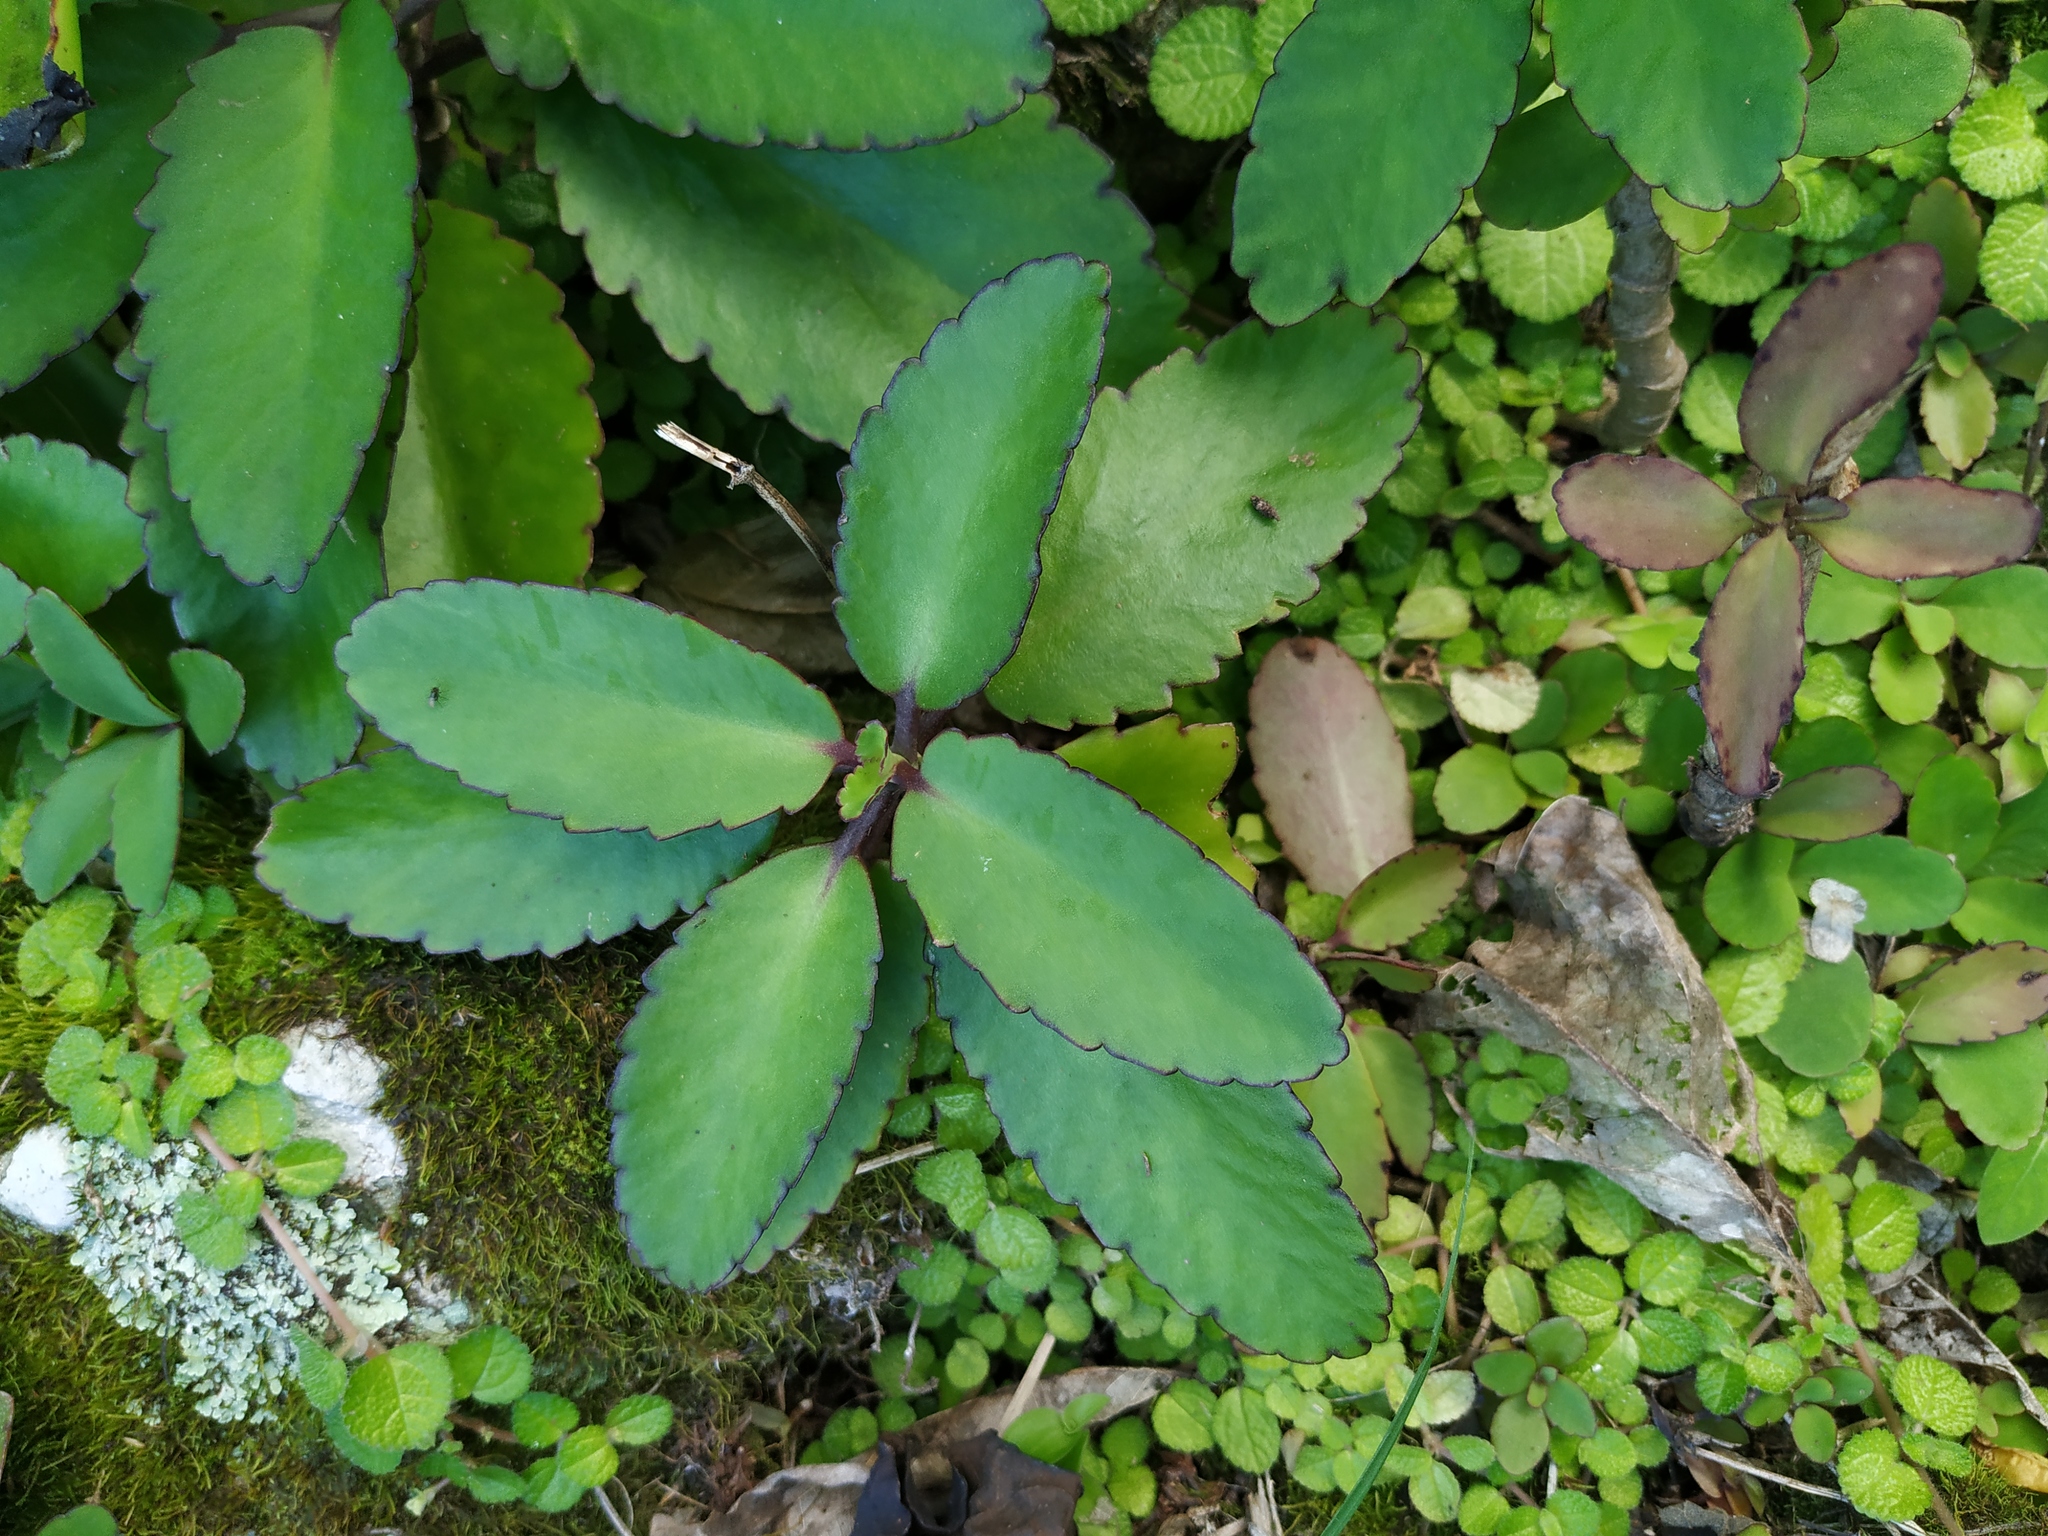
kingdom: Plantae
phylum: Tracheophyta
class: Magnoliopsida
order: Saxifragales
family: Crassulaceae
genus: Kalanchoe
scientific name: Kalanchoe pinnata
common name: Cathedral bells
